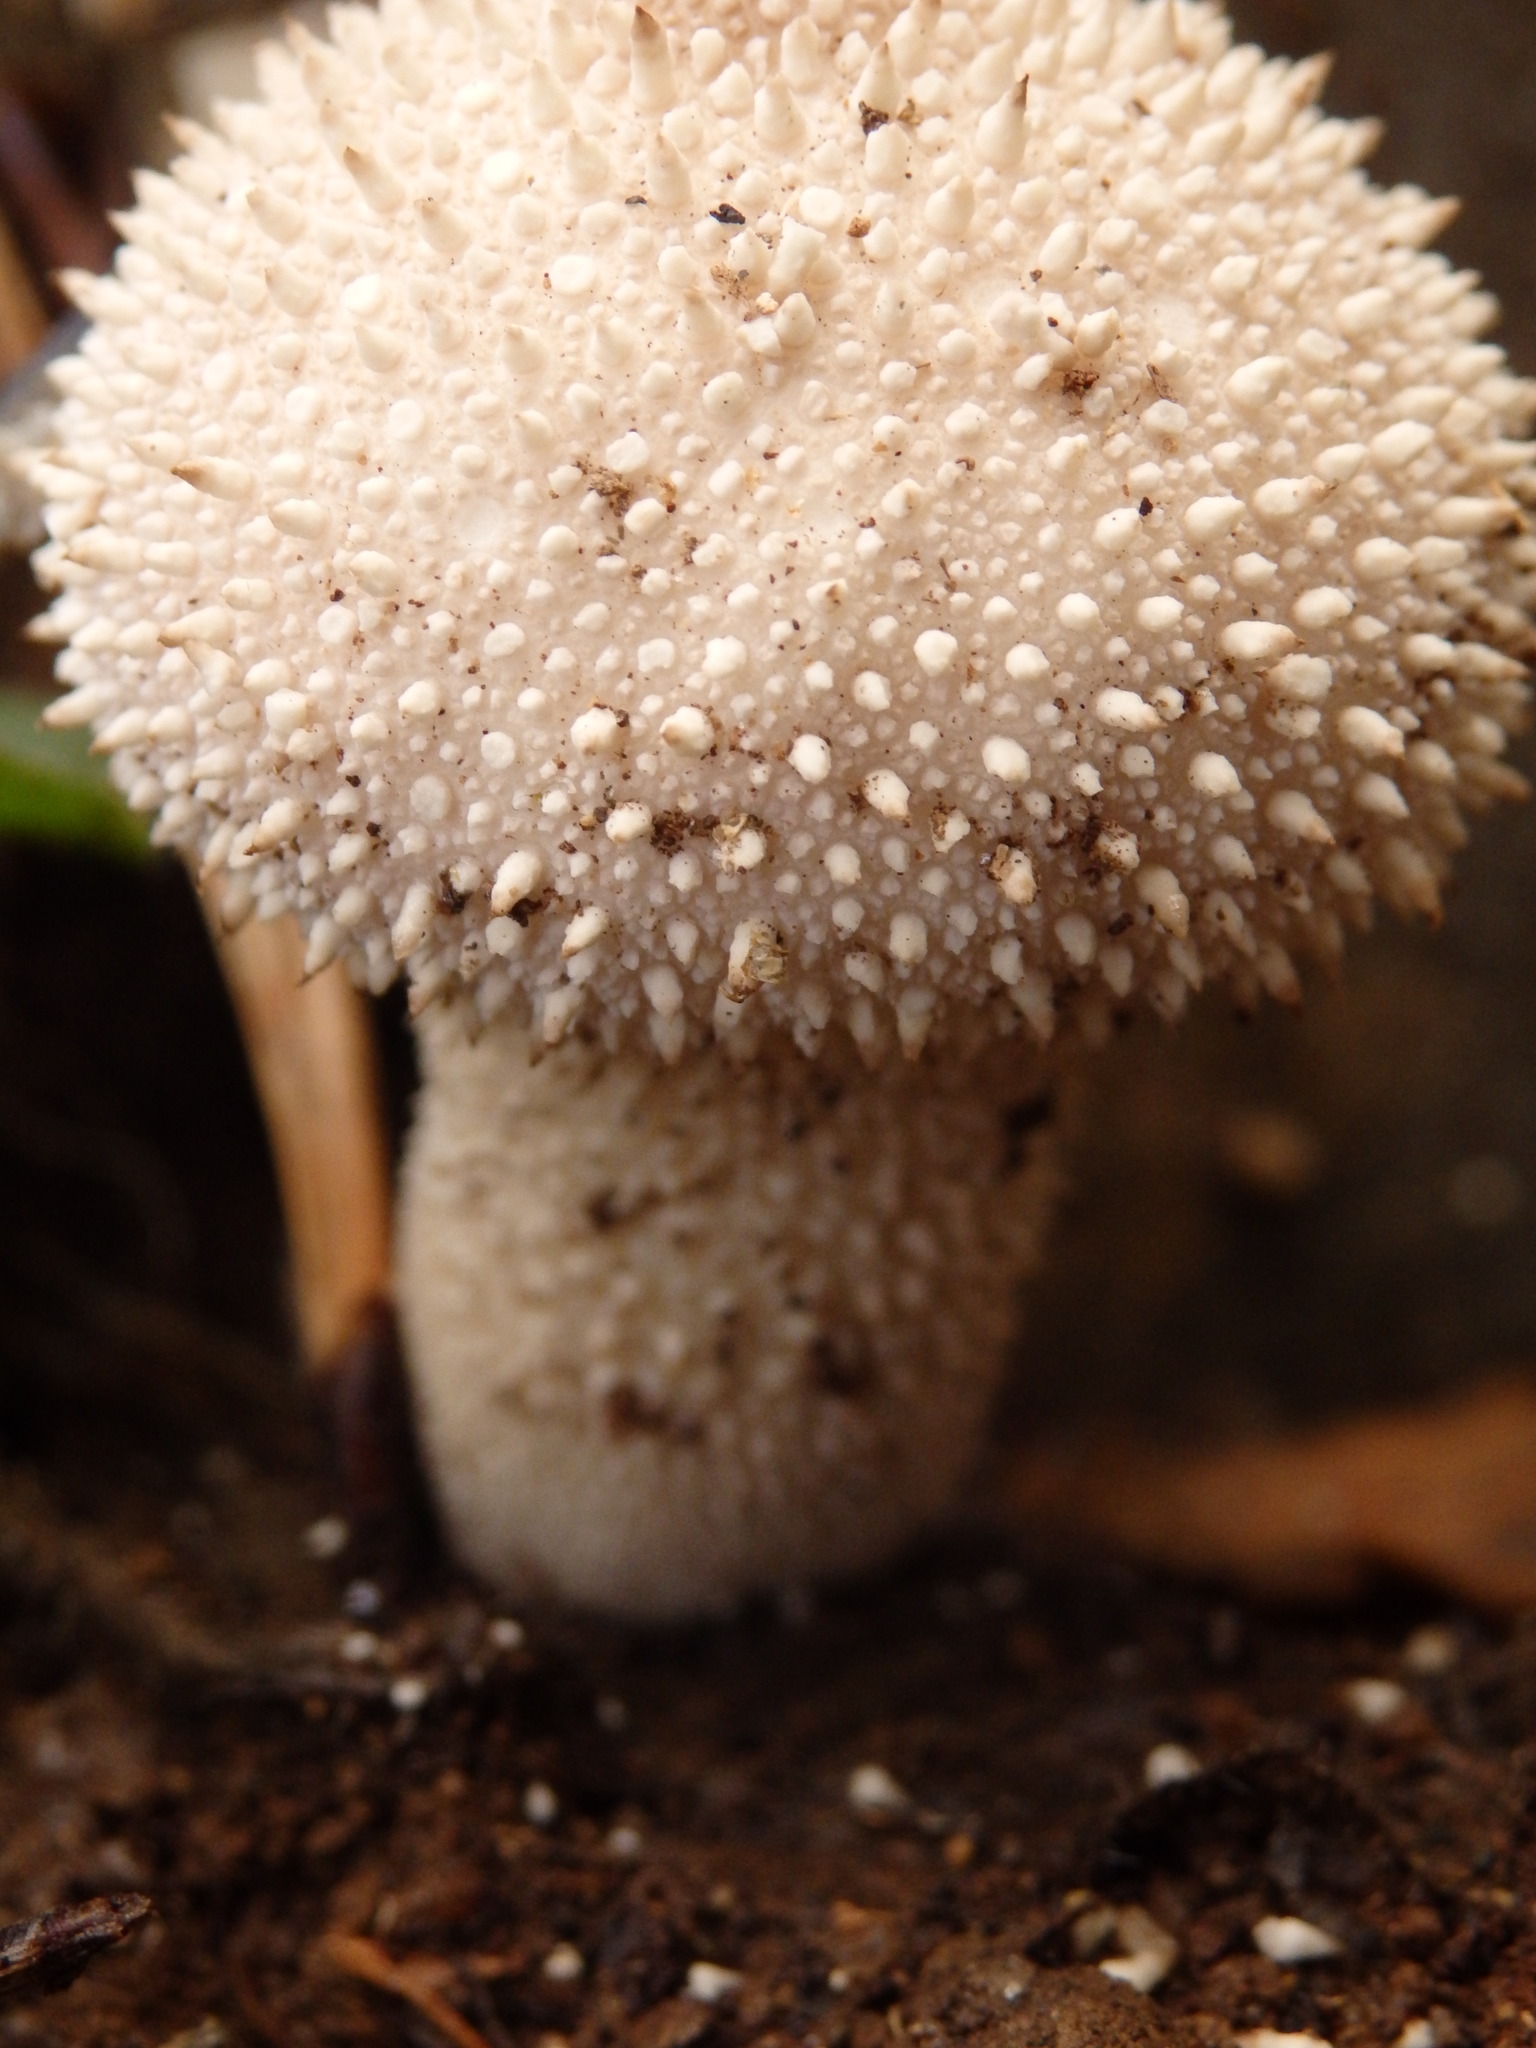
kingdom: Fungi
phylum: Basidiomycota
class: Agaricomycetes
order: Agaricales
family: Lycoperdaceae
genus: Lycoperdon
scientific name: Lycoperdon perlatum
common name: Common puffball
